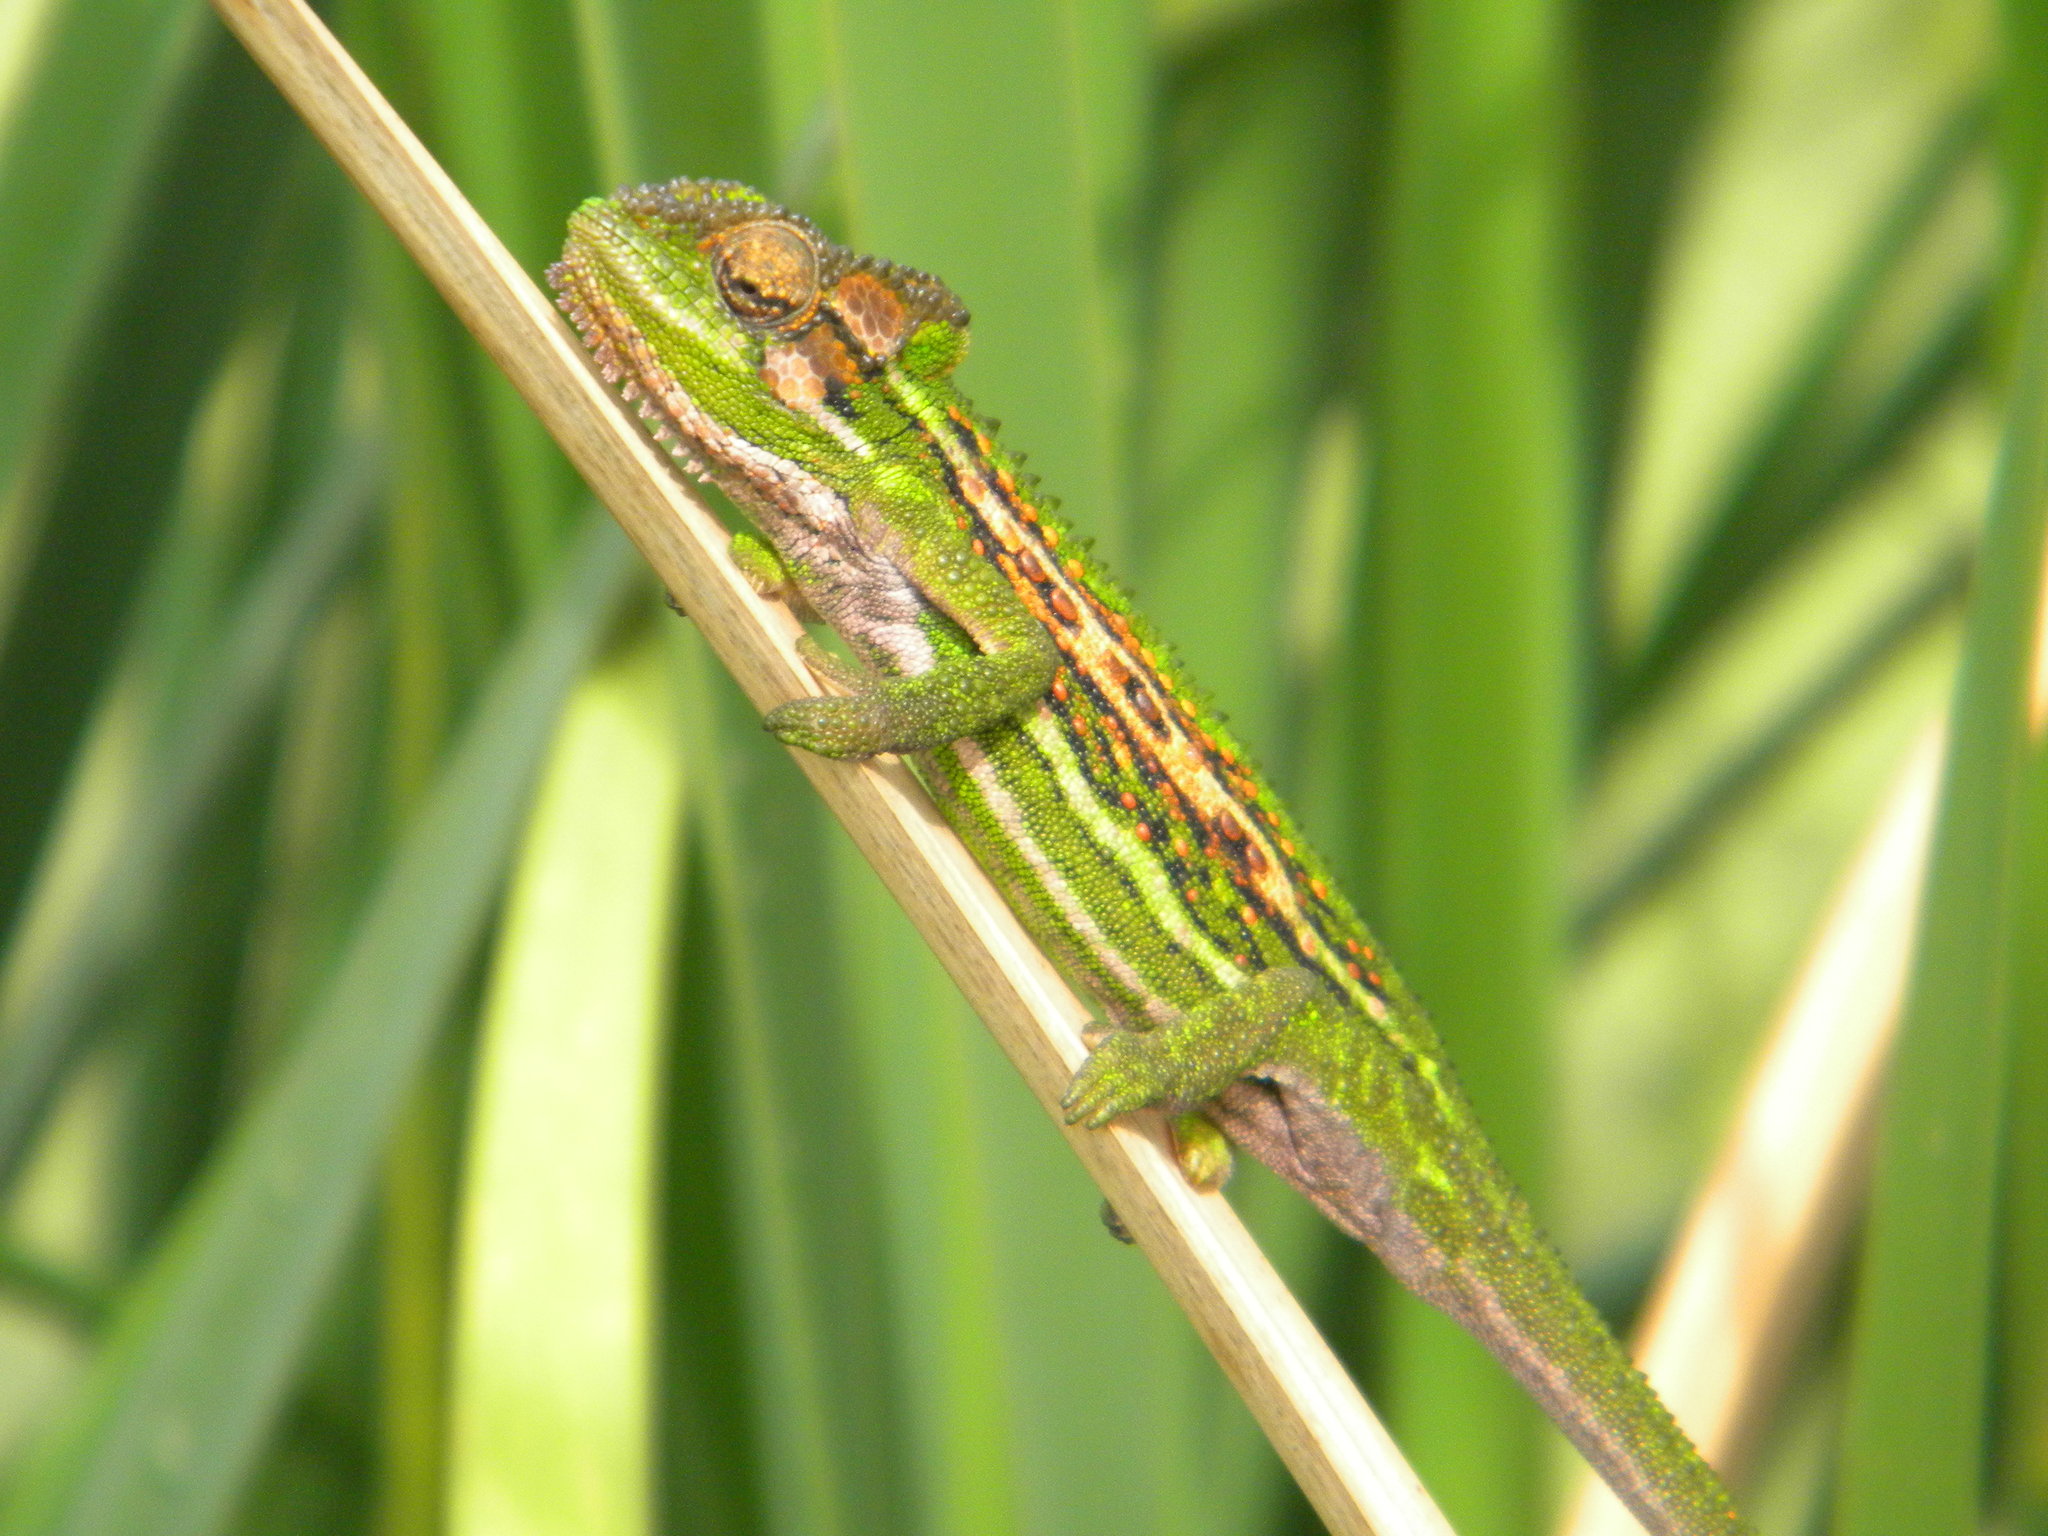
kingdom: Animalia
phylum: Chordata
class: Squamata
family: Chamaeleonidae
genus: Bradypodion
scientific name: Bradypodion pumilum
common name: Cape dwarf chameleon
